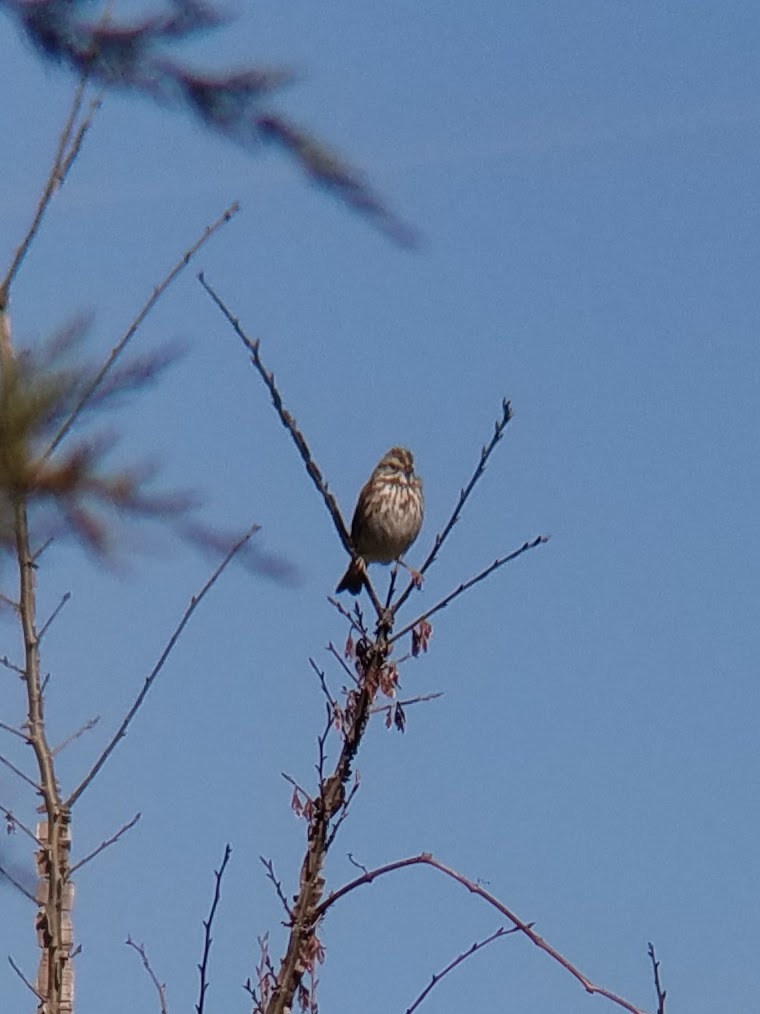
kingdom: Animalia
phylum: Chordata
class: Aves
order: Passeriformes
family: Passerellidae
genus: Melospiza
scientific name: Melospiza melodia
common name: Song sparrow
